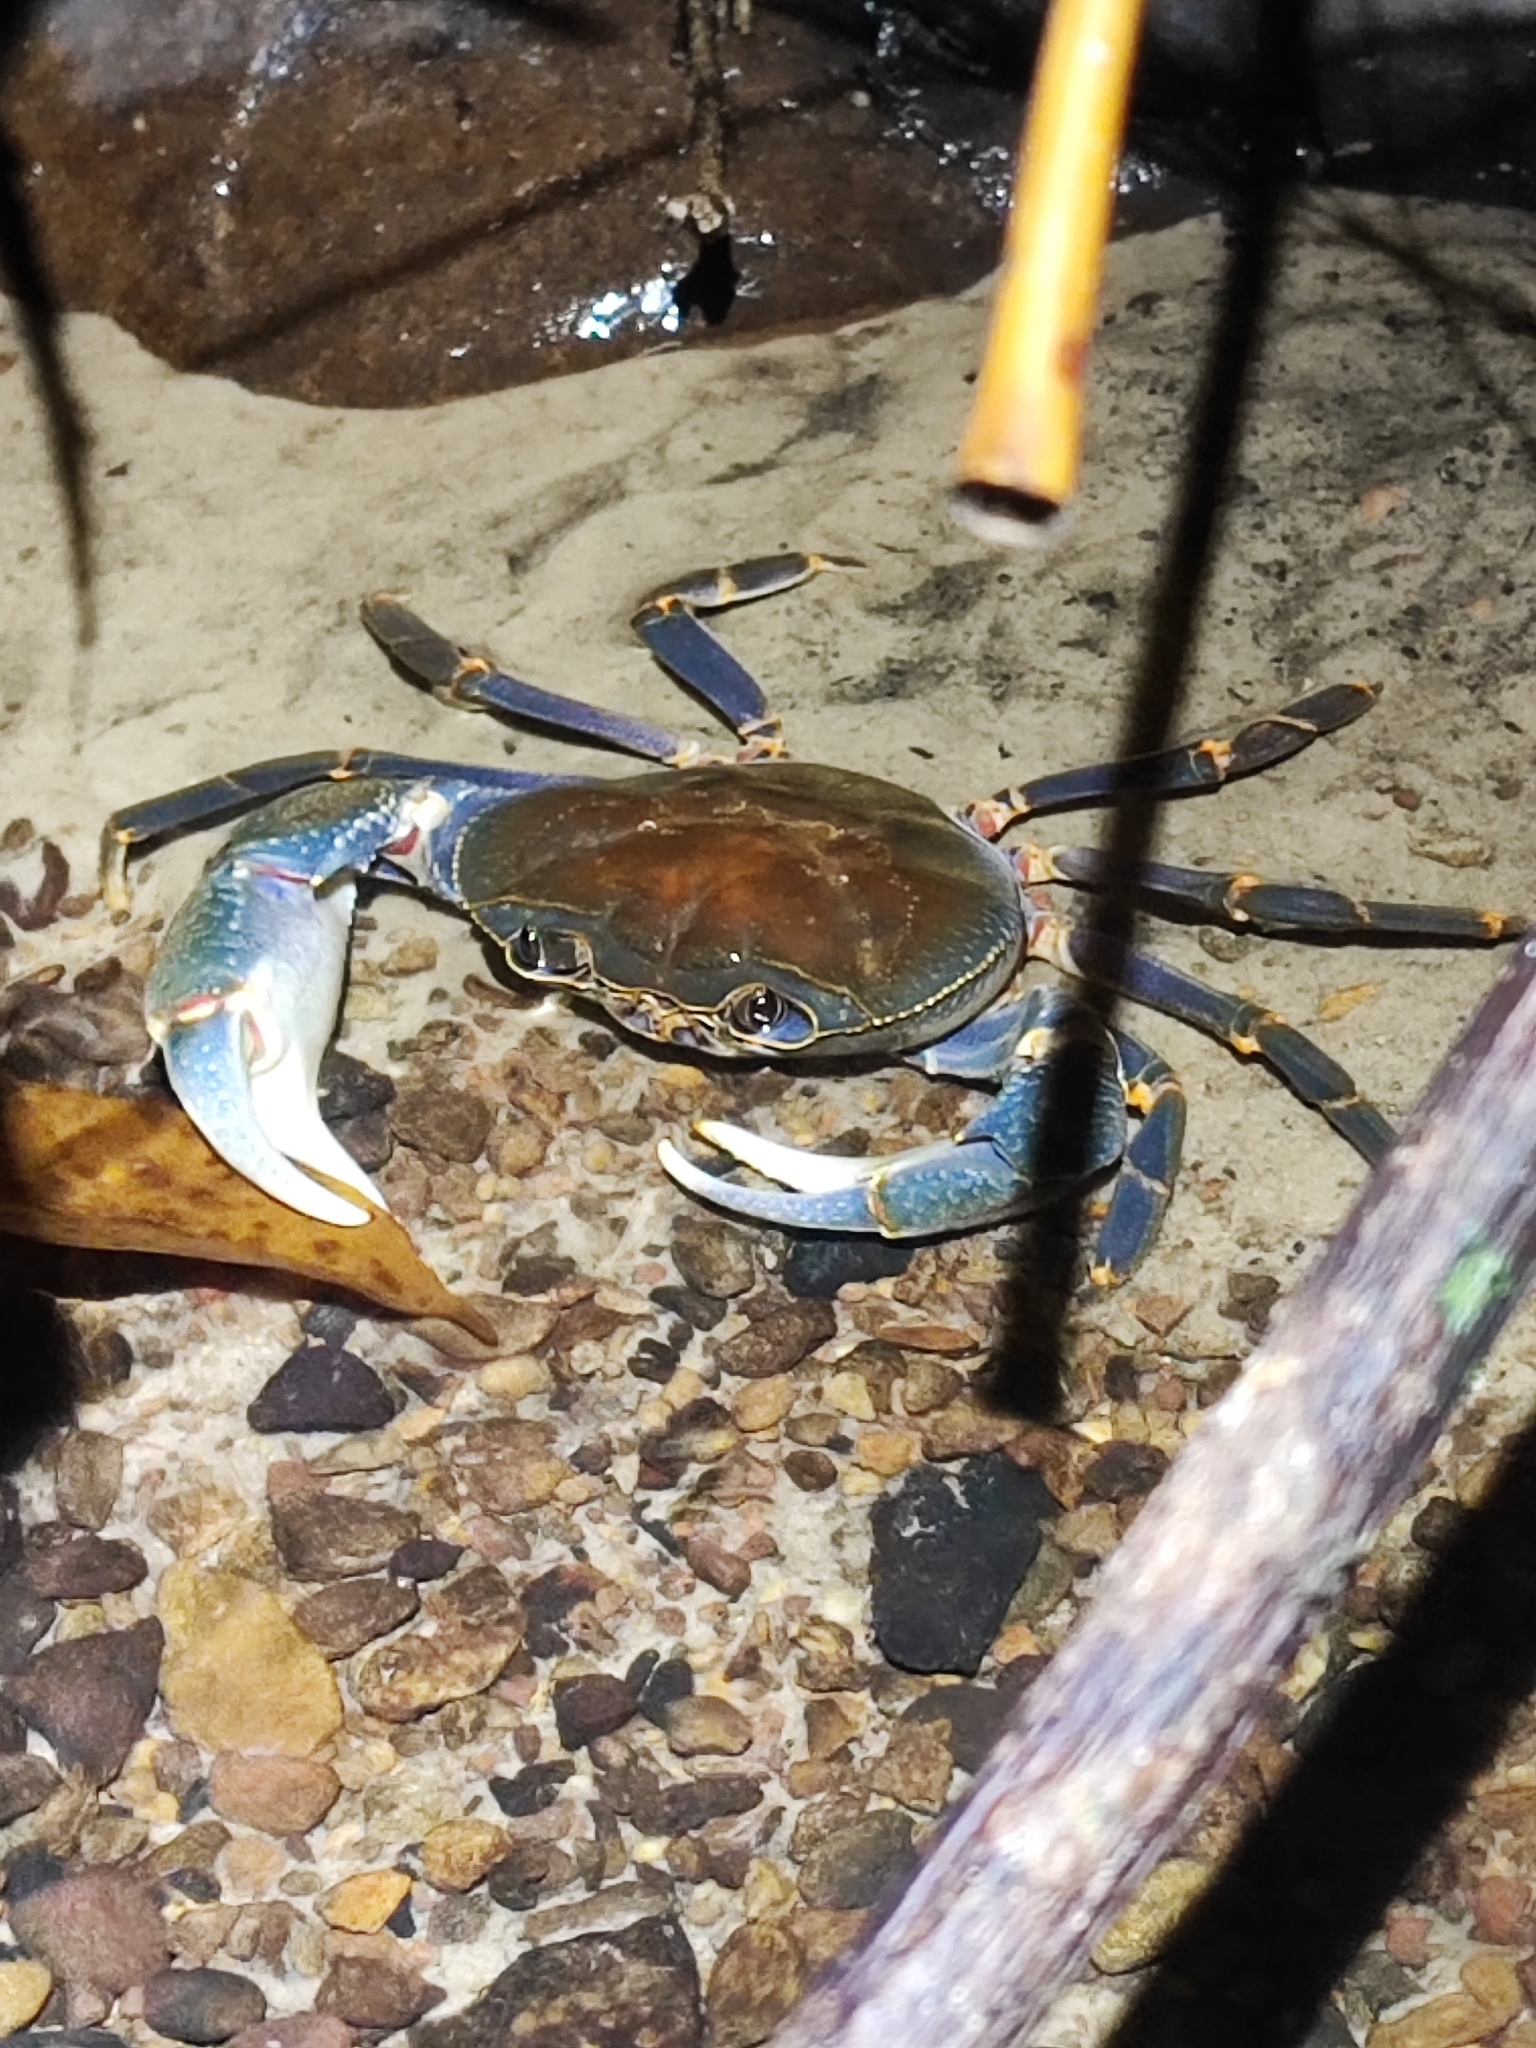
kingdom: Animalia
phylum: Arthropoda
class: Malacostraca
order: Decapoda
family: Potamidae
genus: Demanietta
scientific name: Demanietta renongensis
